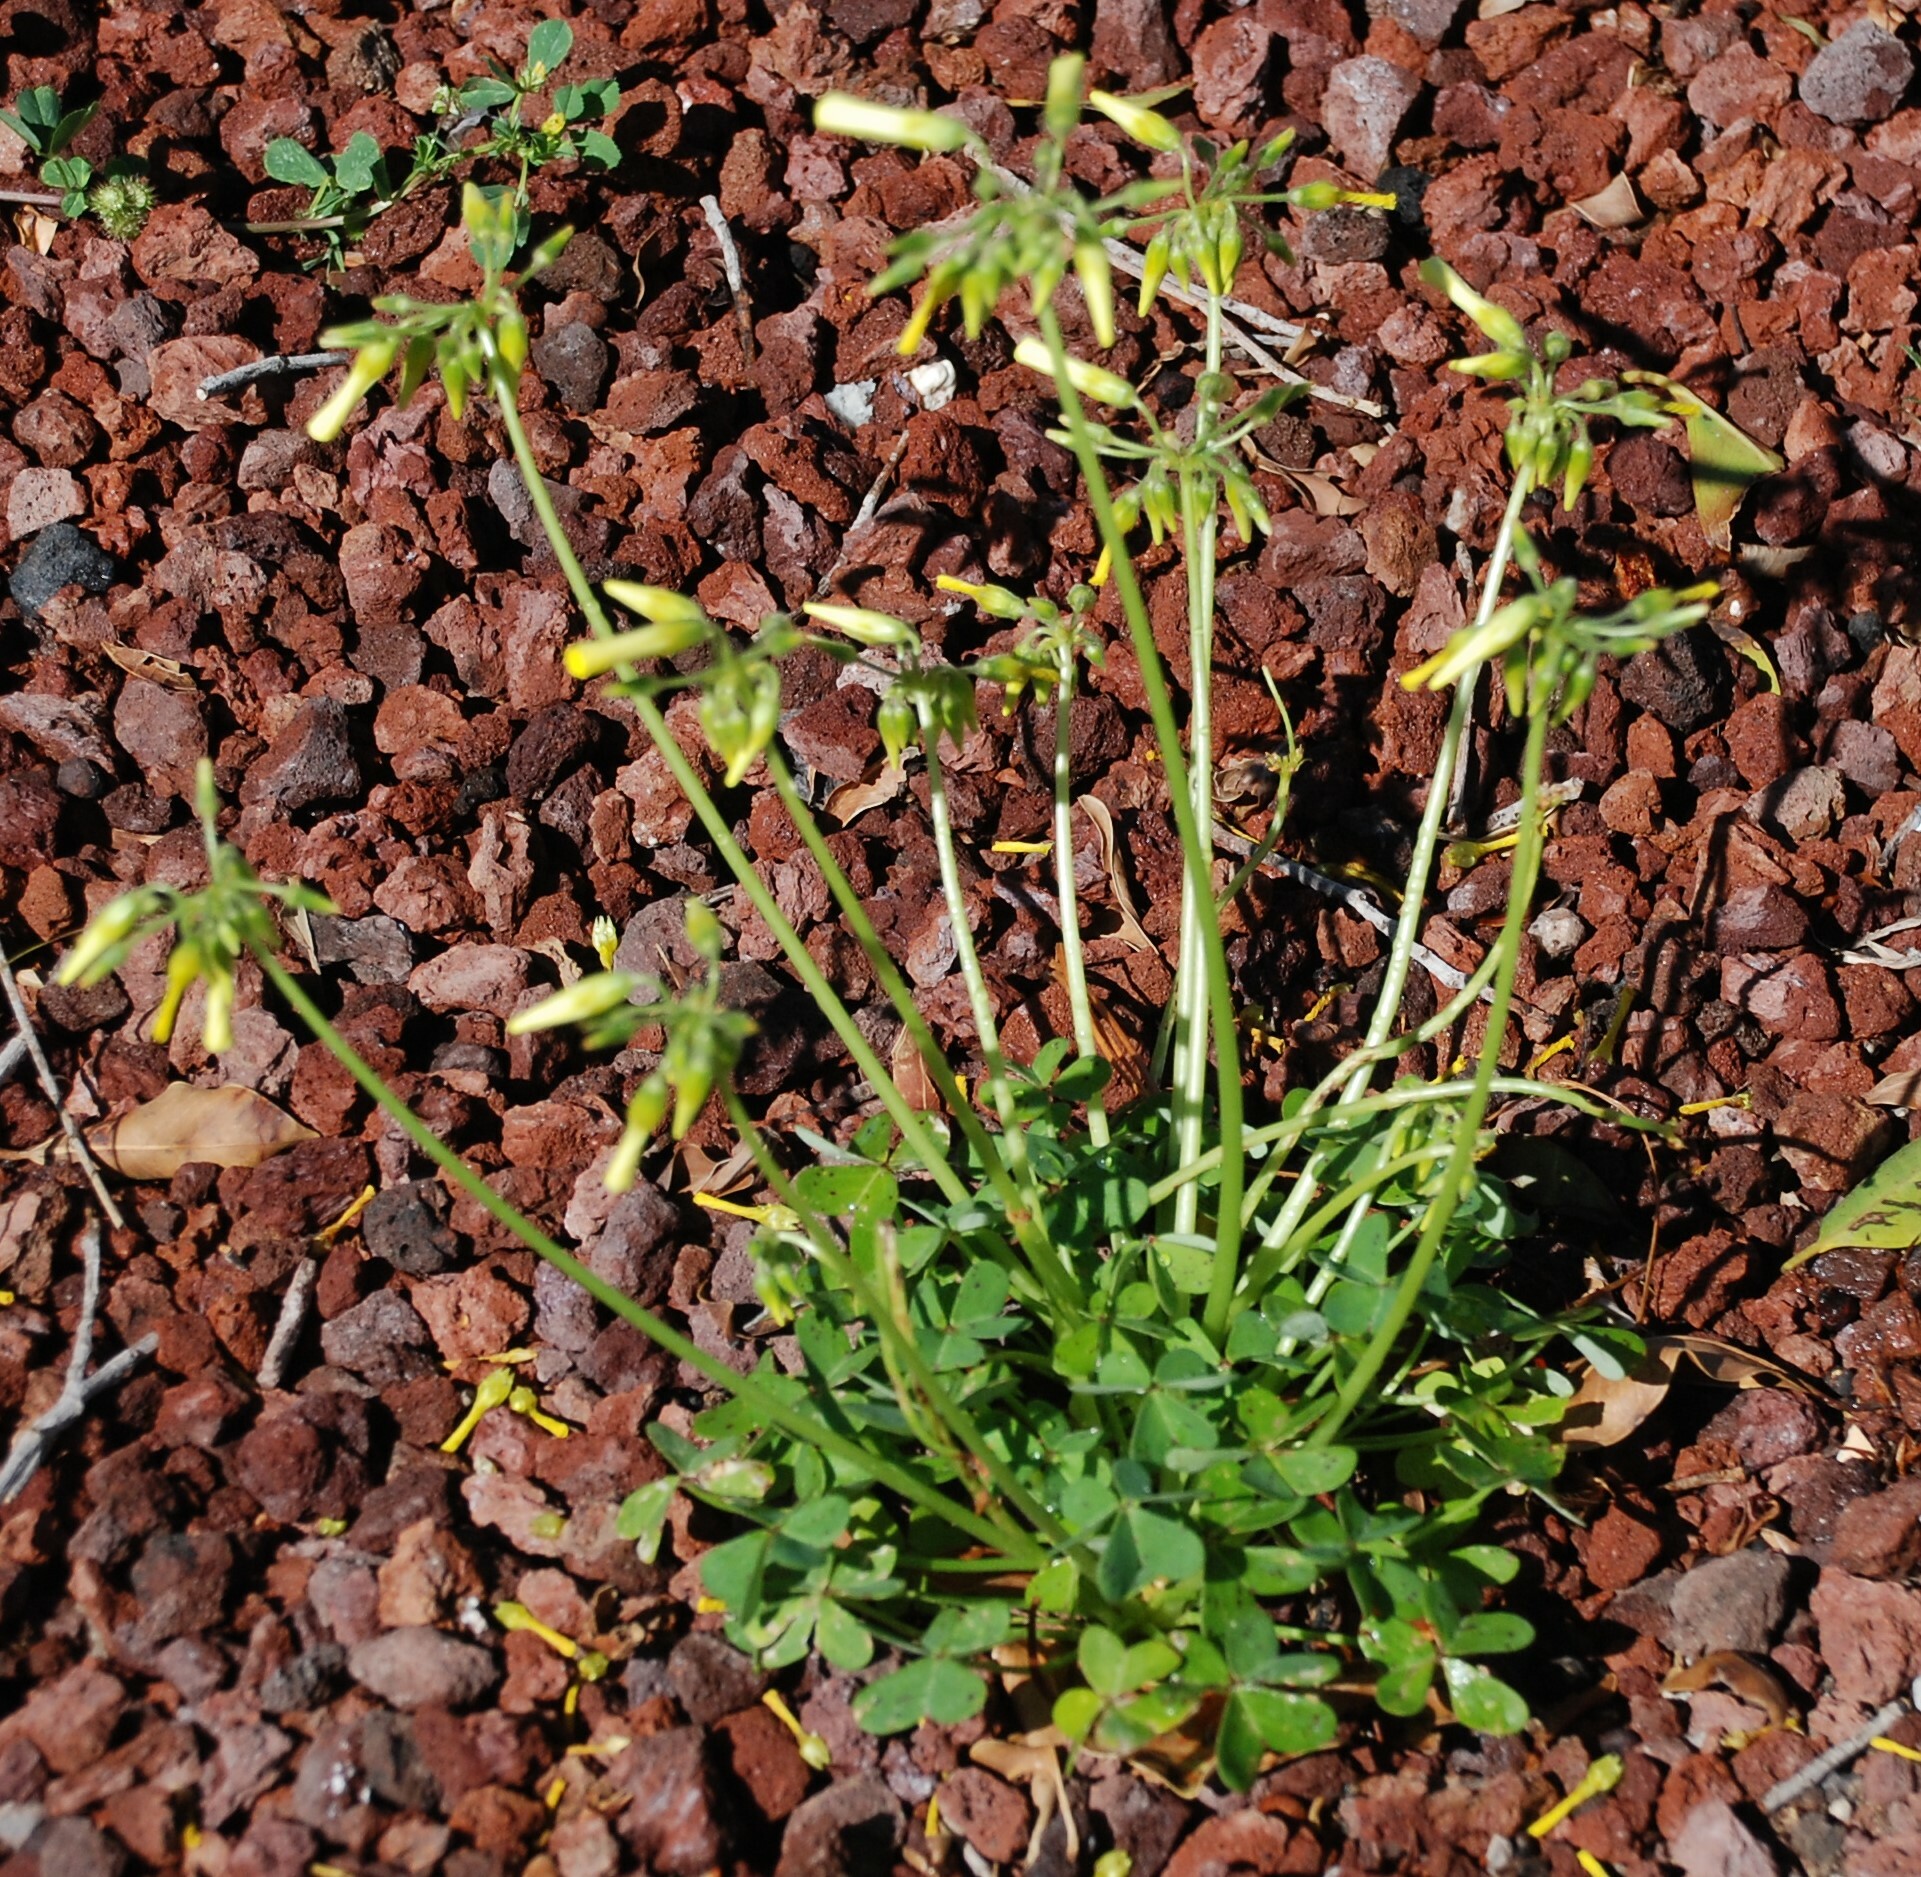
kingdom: Plantae
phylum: Tracheophyta
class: Magnoliopsida
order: Oxalidales
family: Oxalidaceae
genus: Oxalis
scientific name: Oxalis pes-caprae
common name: Bermuda-buttercup
